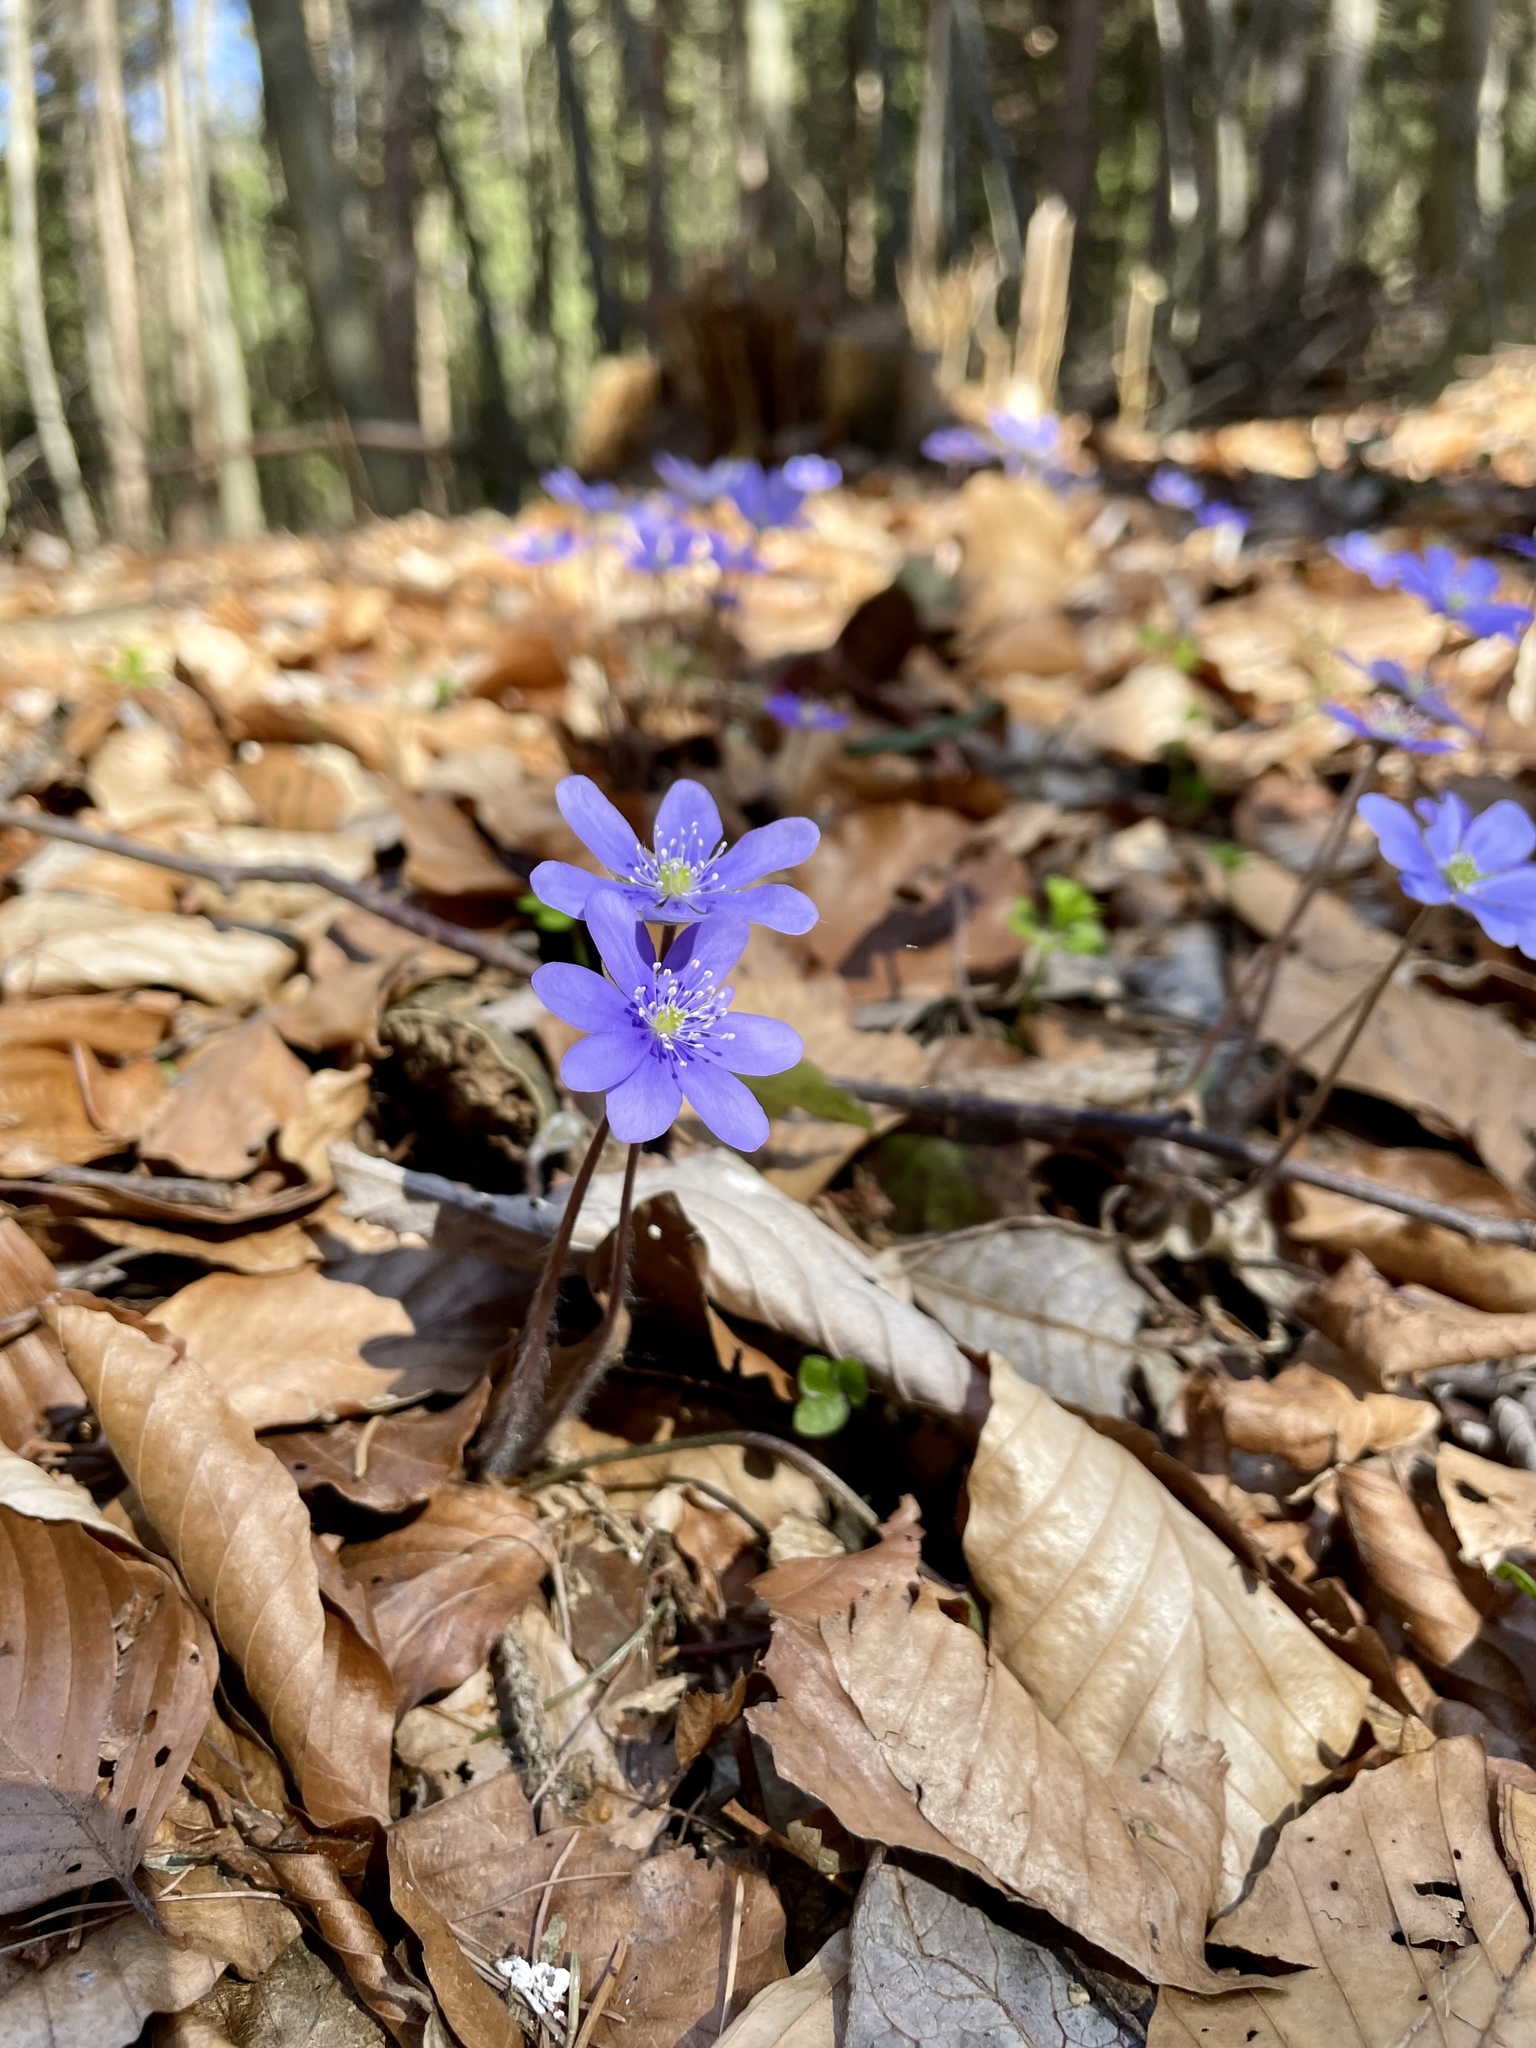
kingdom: Plantae
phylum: Tracheophyta
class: Magnoliopsida
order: Ranunculales
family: Ranunculaceae
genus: Hepatica
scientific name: Hepatica nobilis
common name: Liverleaf
